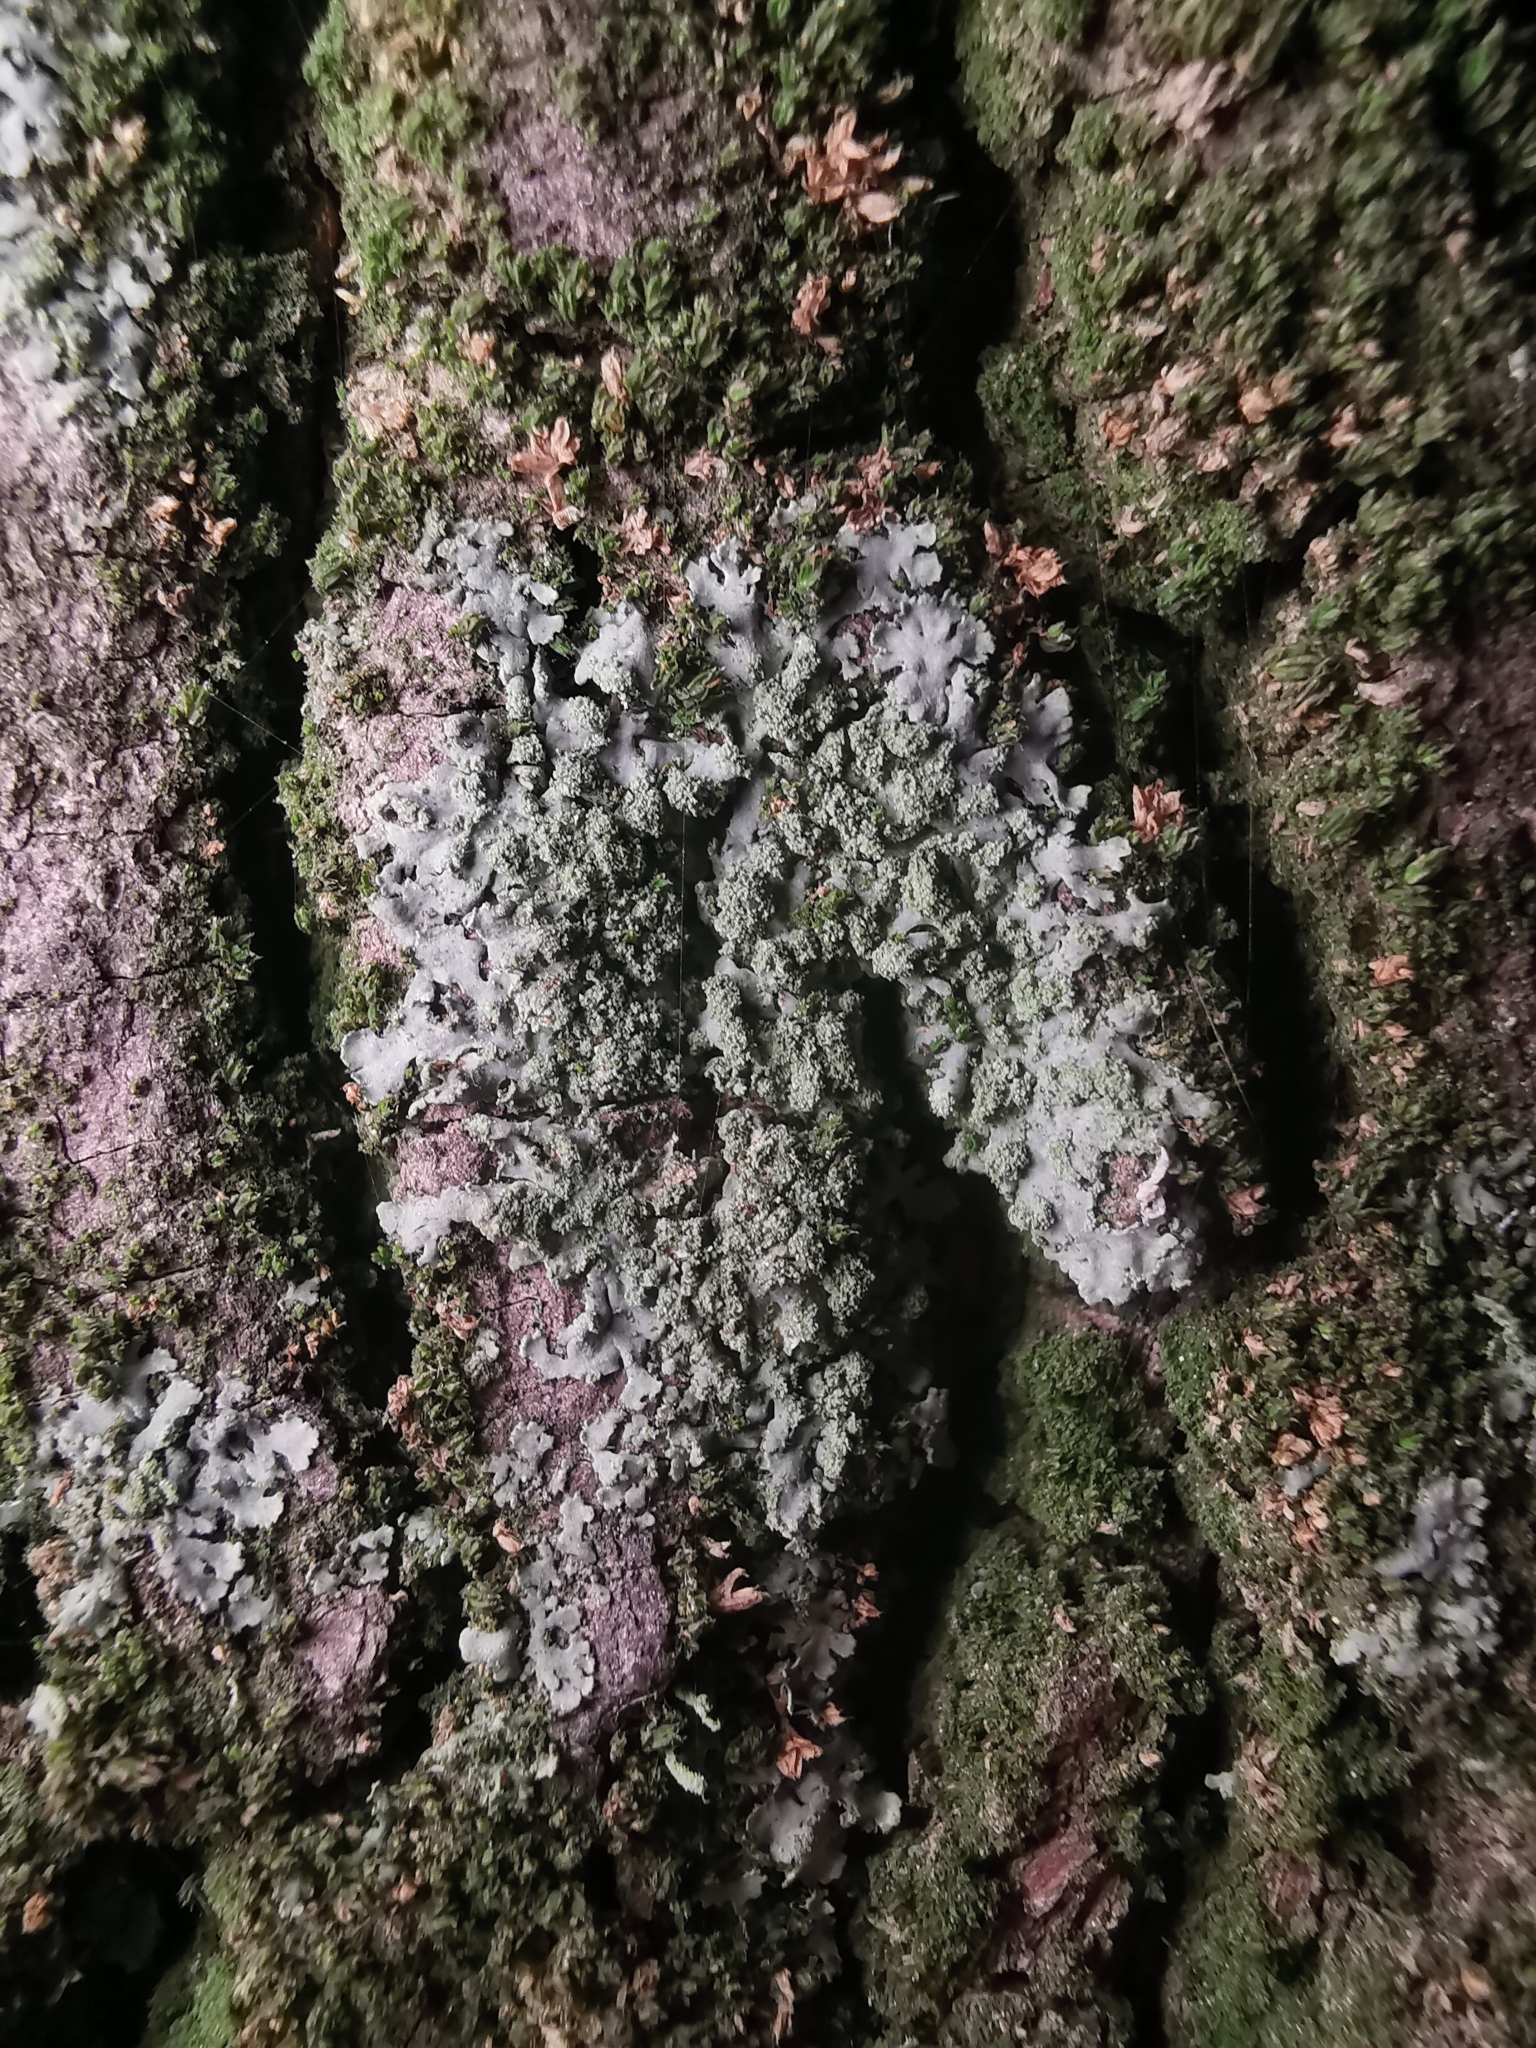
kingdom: Fungi
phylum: Ascomycota
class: Lecanoromycetes
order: Caliciales
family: Physciaceae
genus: Phaeophyscia
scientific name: Phaeophyscia orbicularis
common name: Mealy shadow lichen
